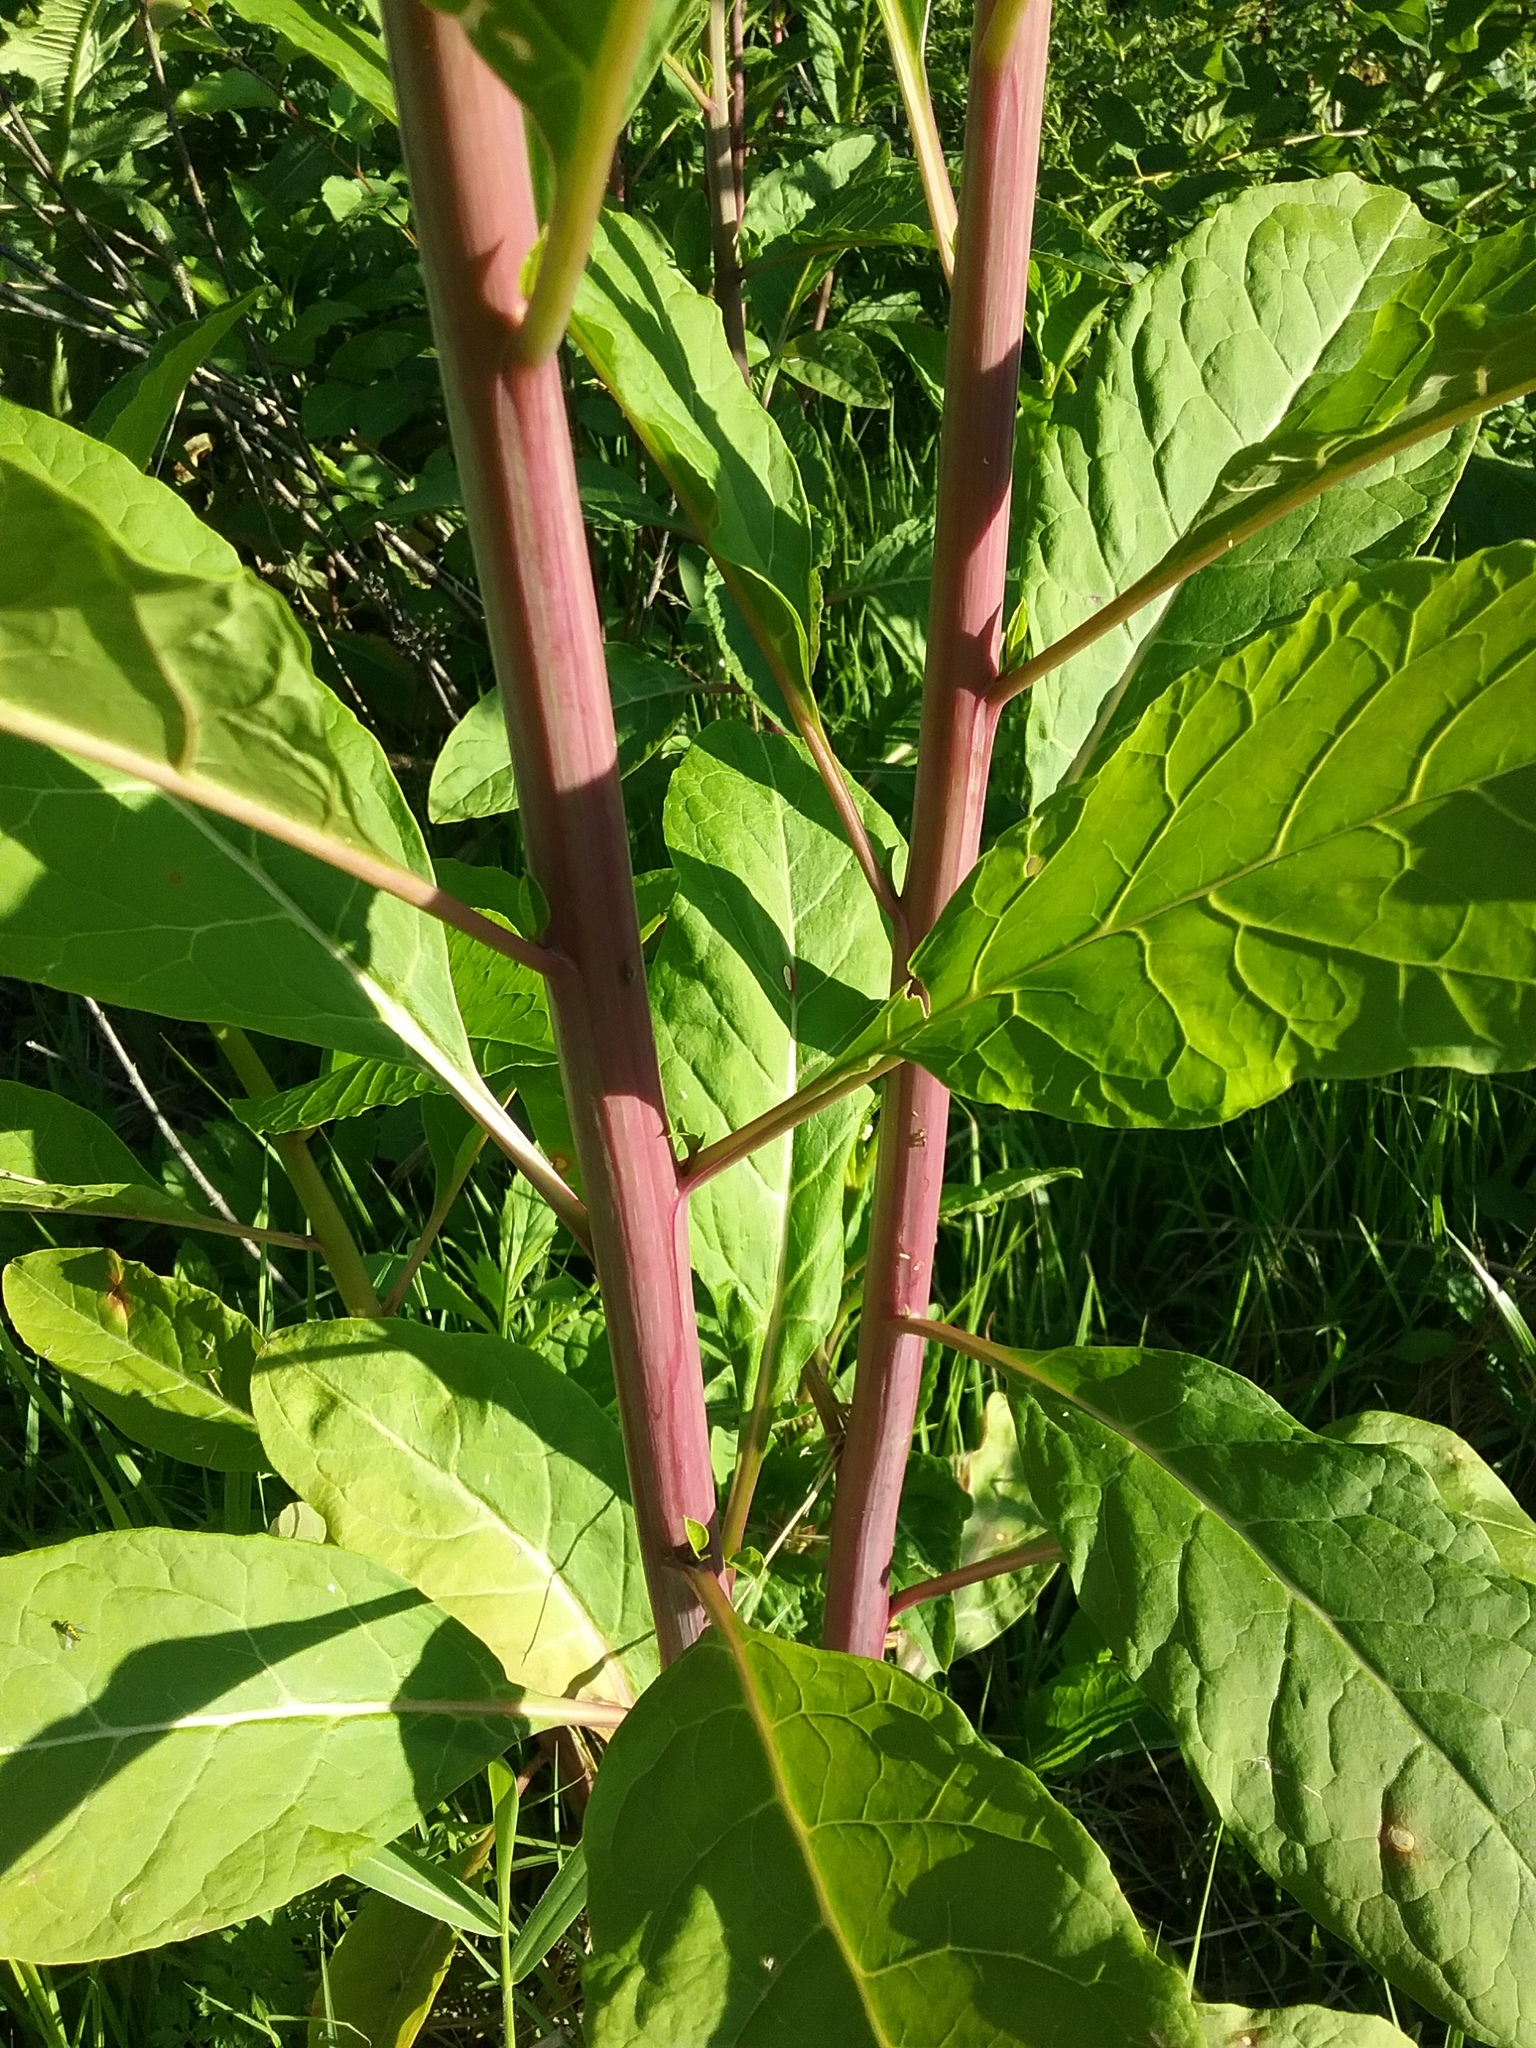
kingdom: Plantae
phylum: Tracheophyta
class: Magnoliopsida
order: Caryophyllales
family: Phytolaccaceae
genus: Phytolacca
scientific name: Phytolacca americana
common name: American pokeweed
